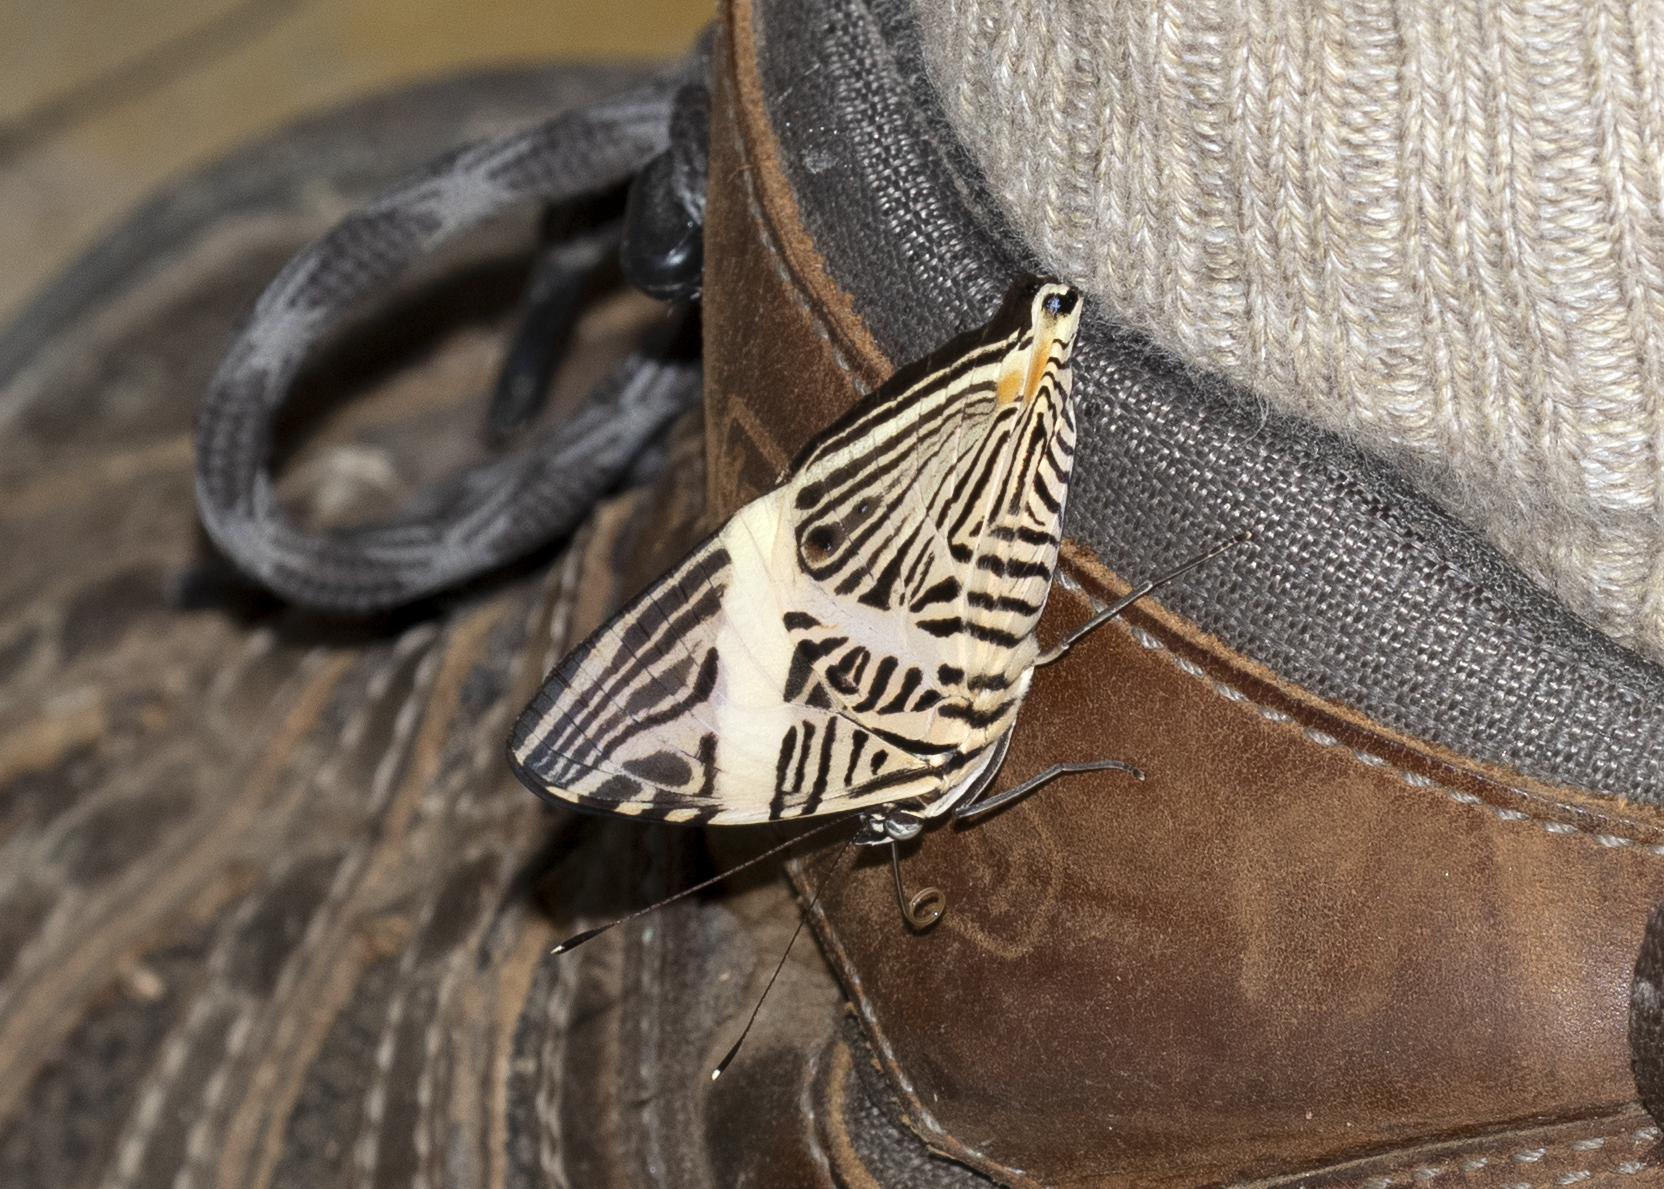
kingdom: Animalia
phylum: Arthropoda
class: Insecta
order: Lepidoptera
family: Nymphalidae
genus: Colobura
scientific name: Colobura dirce
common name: Dirce beauty
